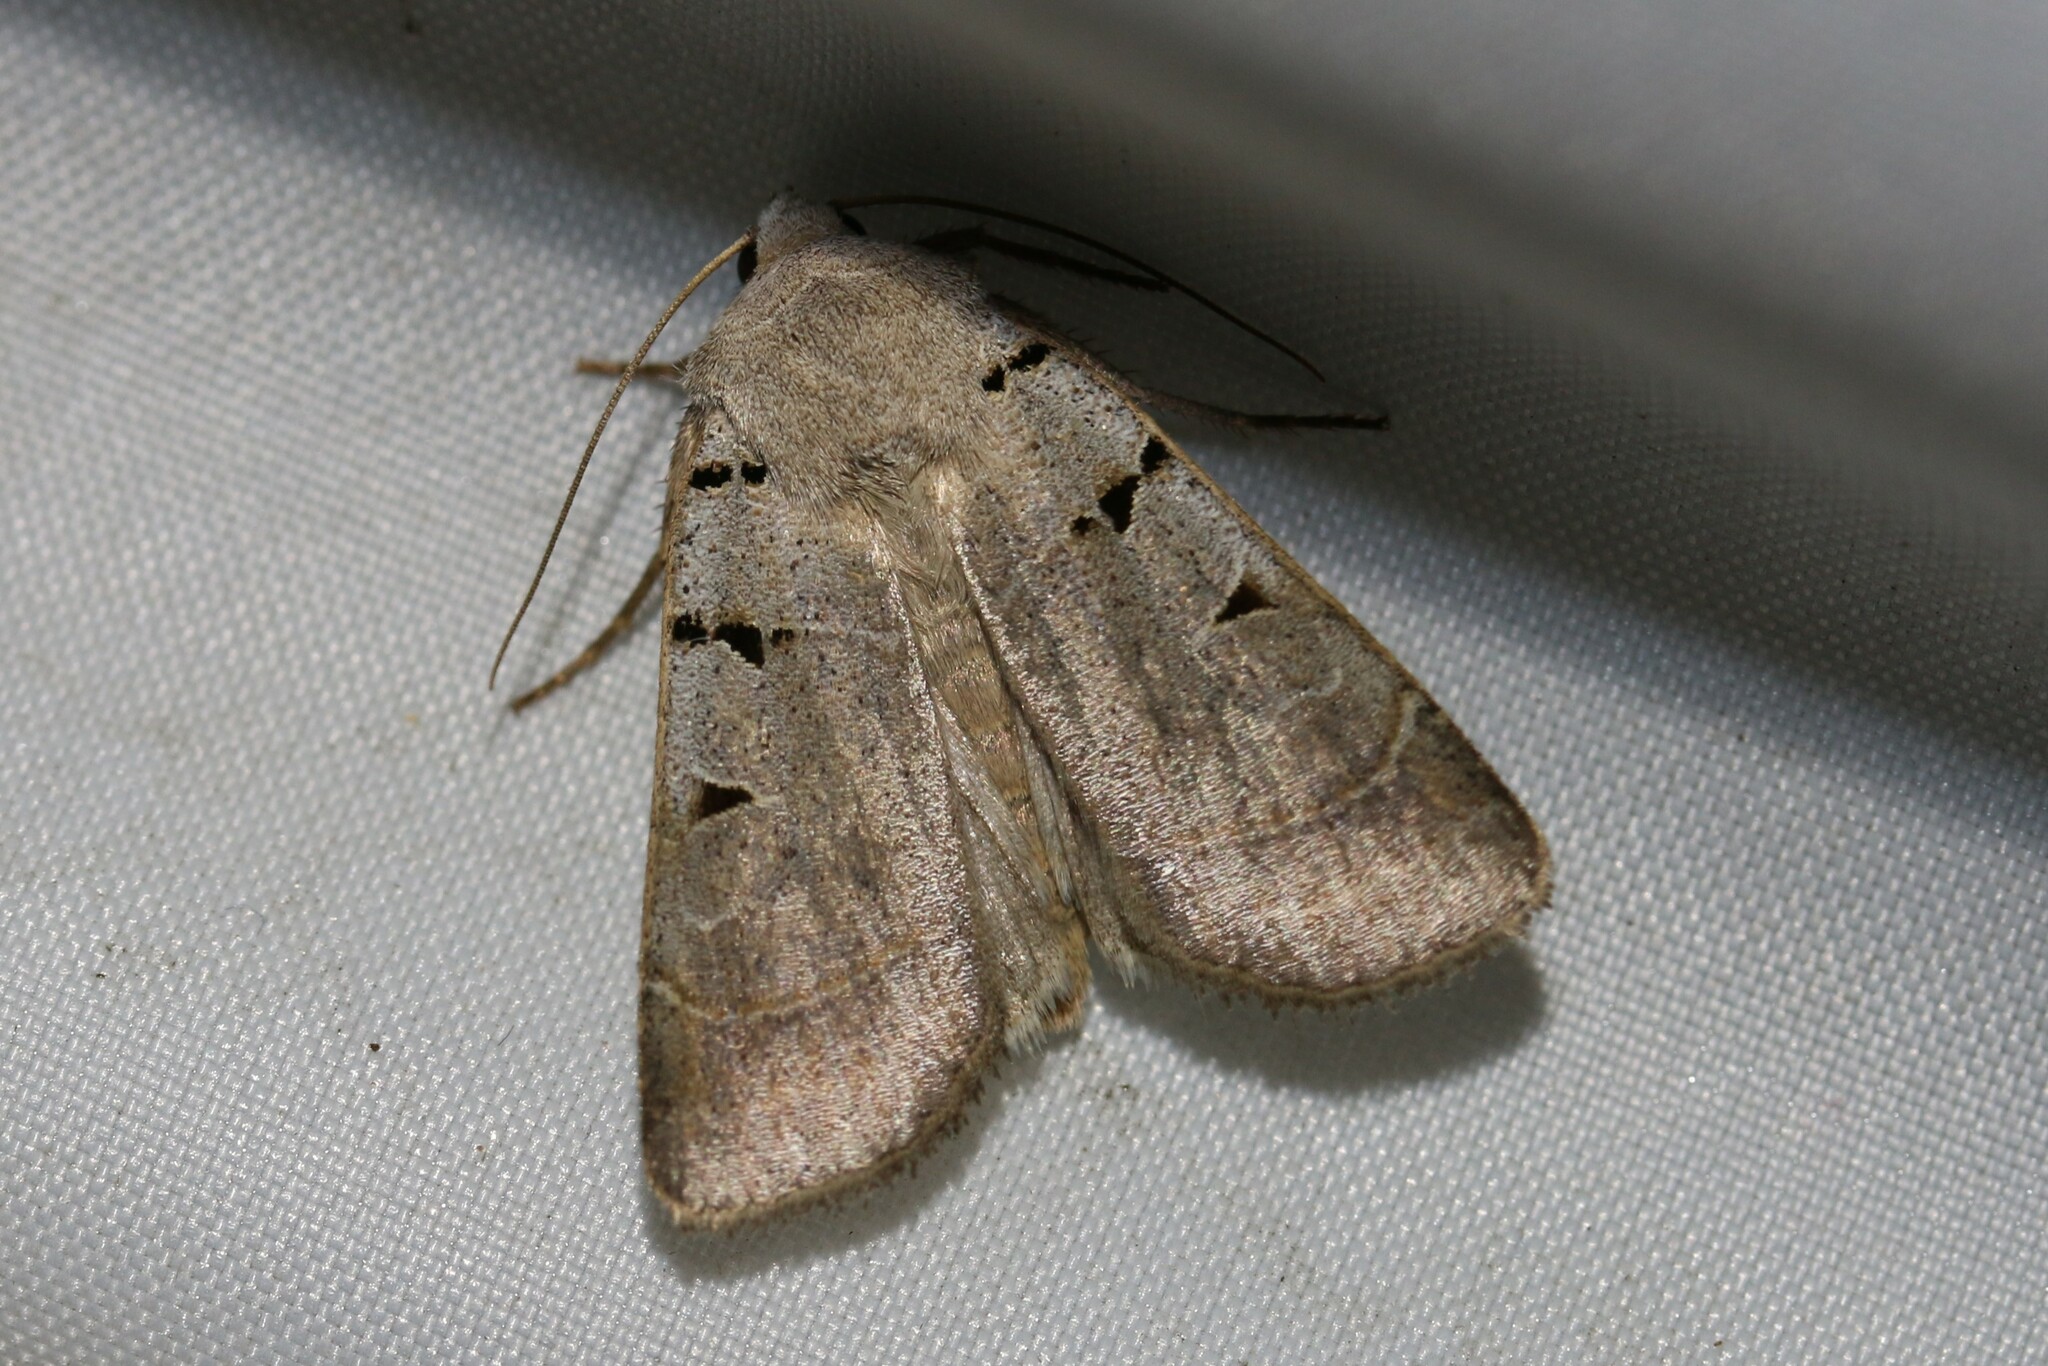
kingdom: Animalia
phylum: Arthropoda
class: Insecta
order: Lepidoptera
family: Noctuidae
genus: Eugnorisma
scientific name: Eugnorisma glareosa
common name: Autumnal rustic
